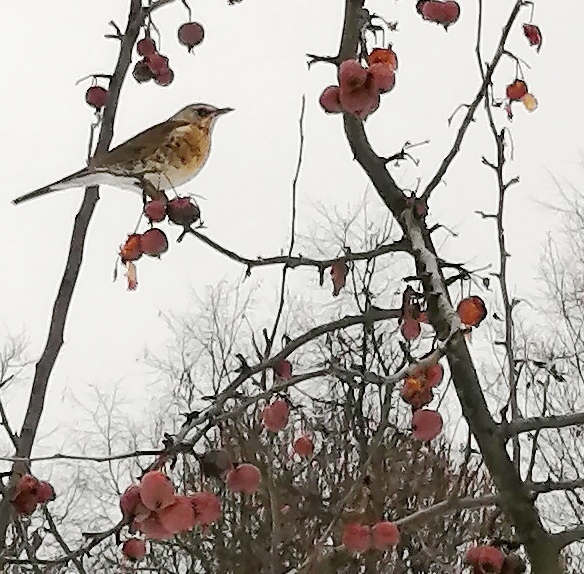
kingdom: Animalia
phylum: Chordata
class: Aves
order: Passeriformes
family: Turdidae
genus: Turdus
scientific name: Turdus pilaris
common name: Fieldfare
